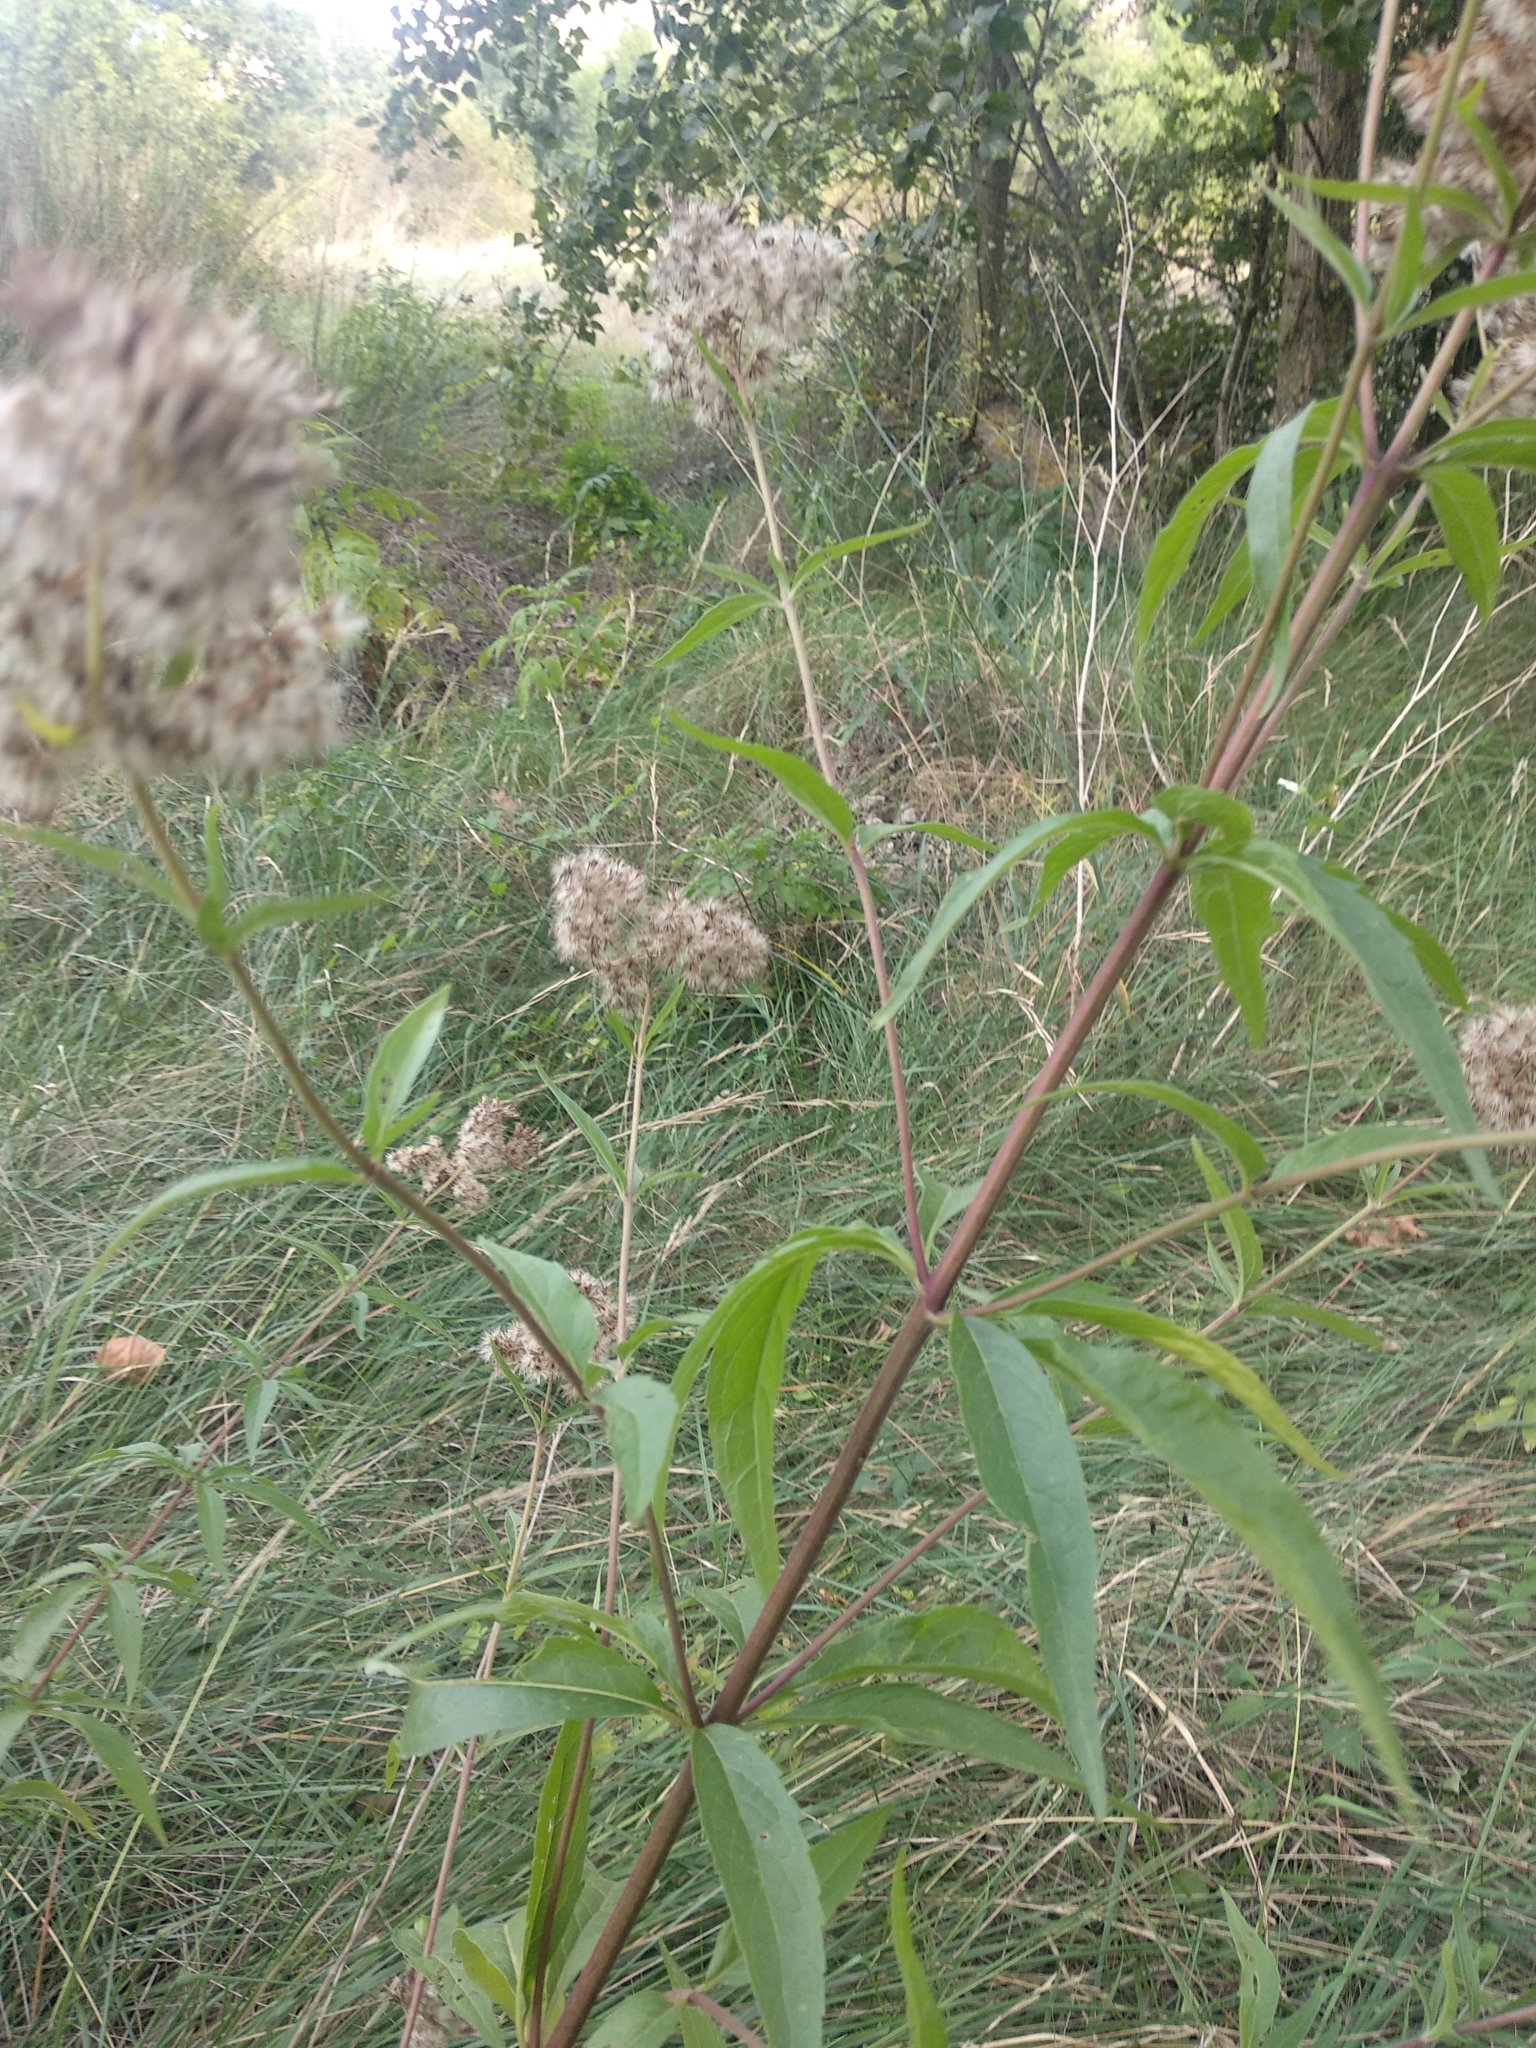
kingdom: Plantae
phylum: Tracheophyta
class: Magnoliopsida
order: Asterales
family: Asteraceae
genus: Eupatorium
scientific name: Eupatorium cannabinum
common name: Hemp-agrimony
